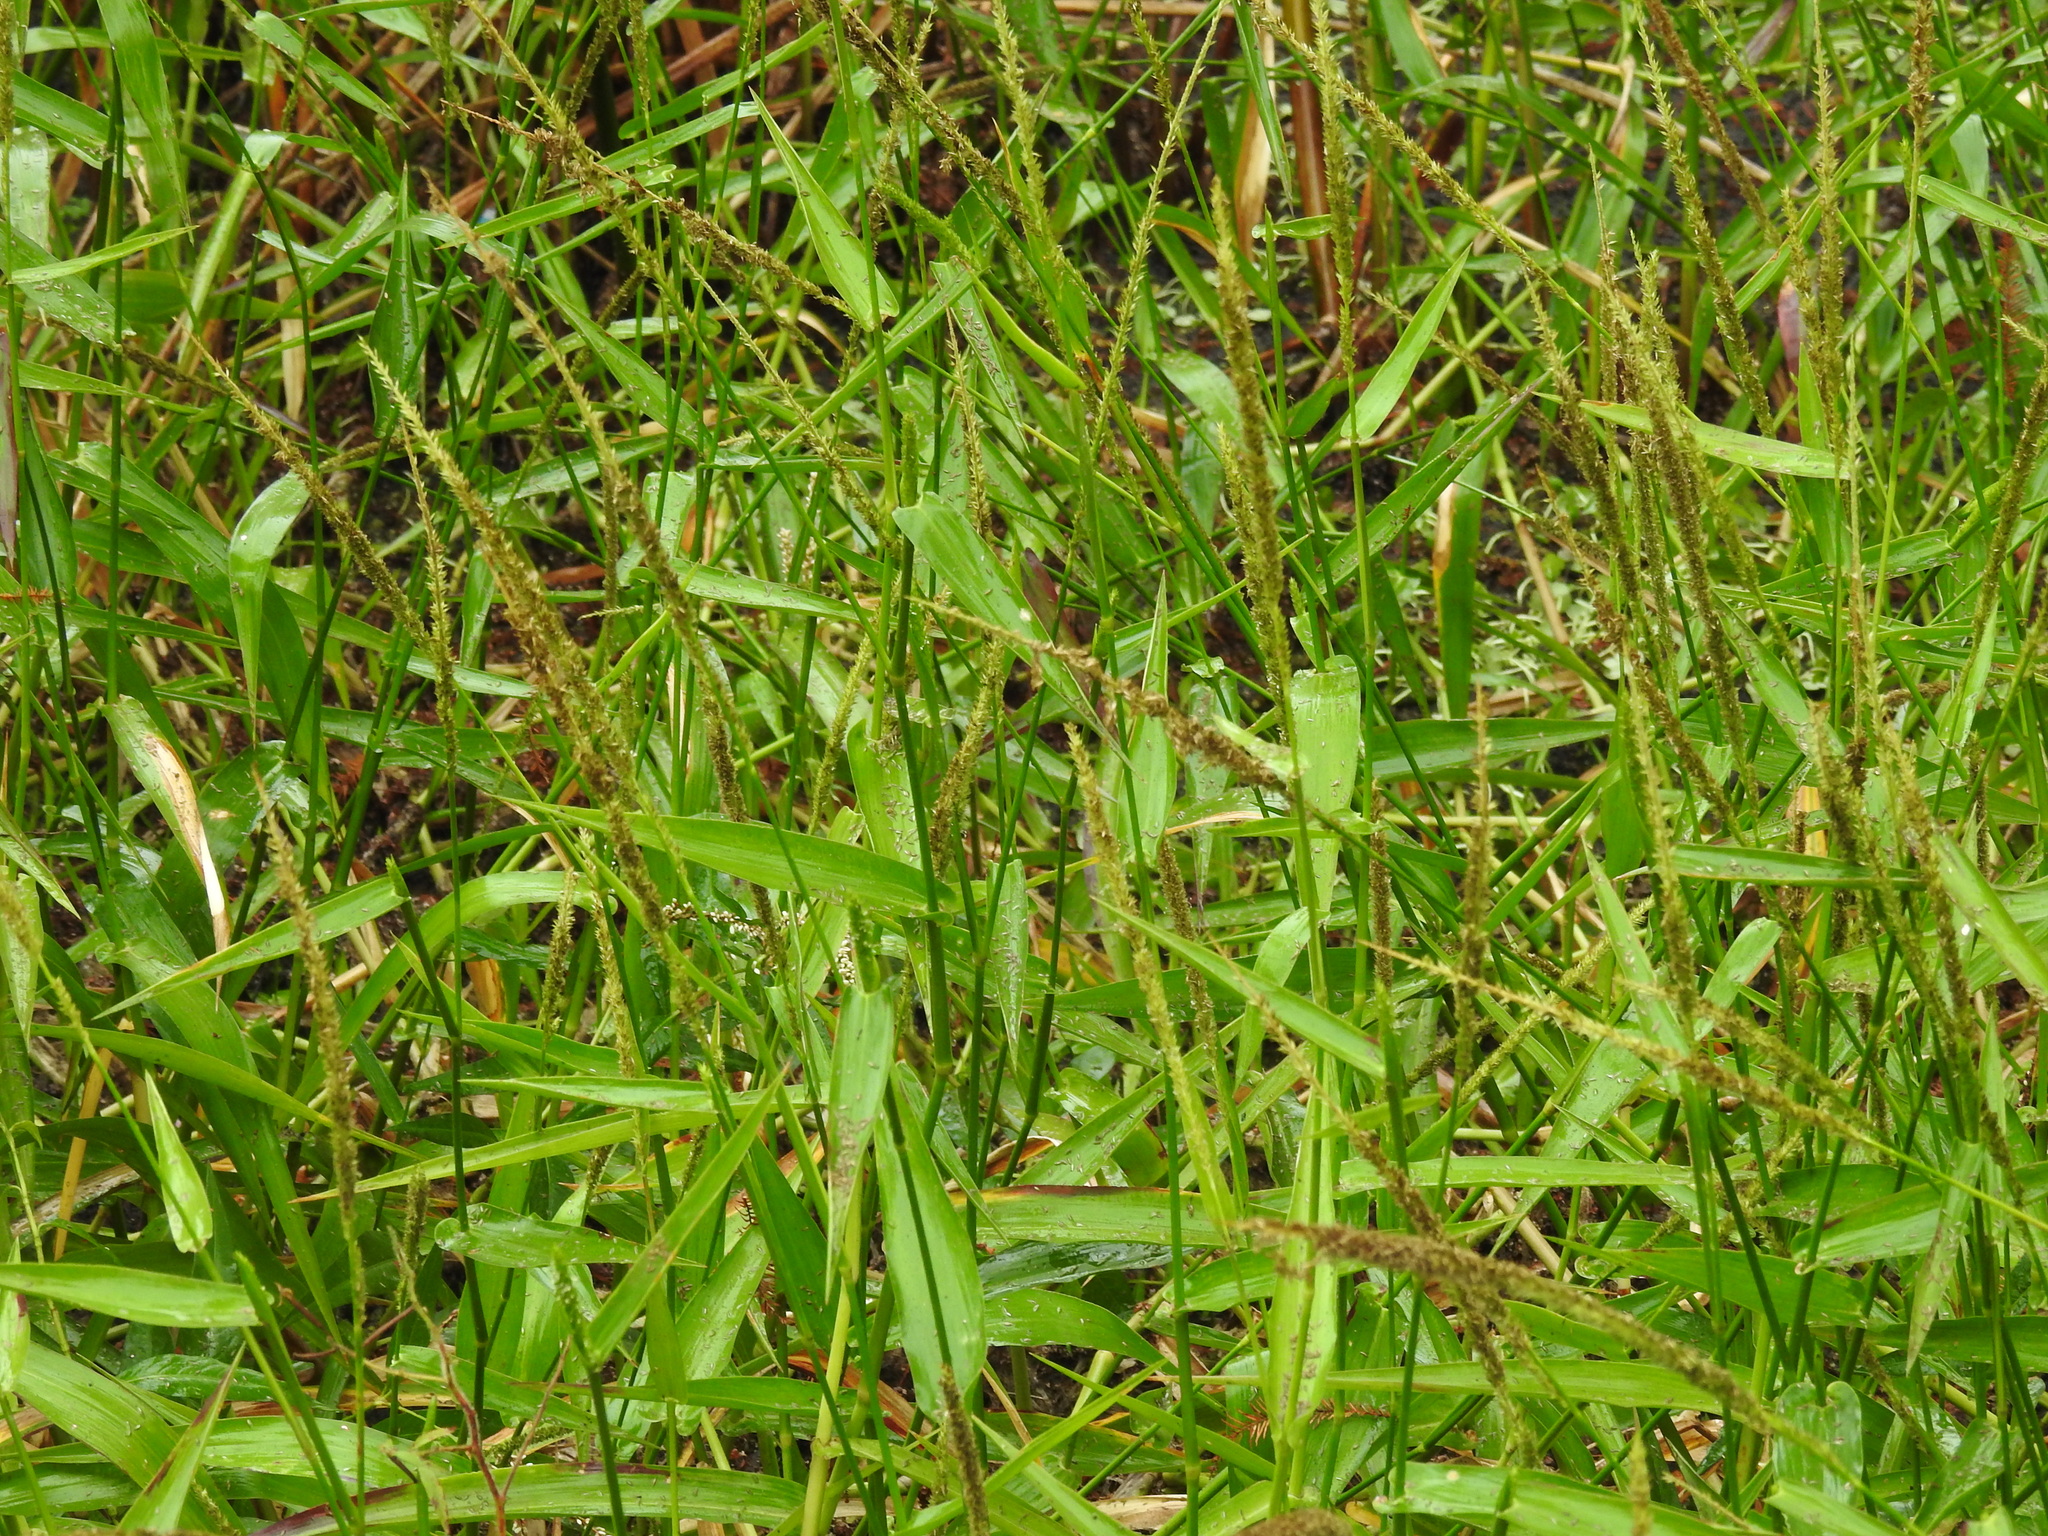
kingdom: Plantae
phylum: Tracheophyta
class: Liliopsida
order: Poales
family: Poaceae
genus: Sacciolepis
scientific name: Sacciolepis striata
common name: American cupscale
